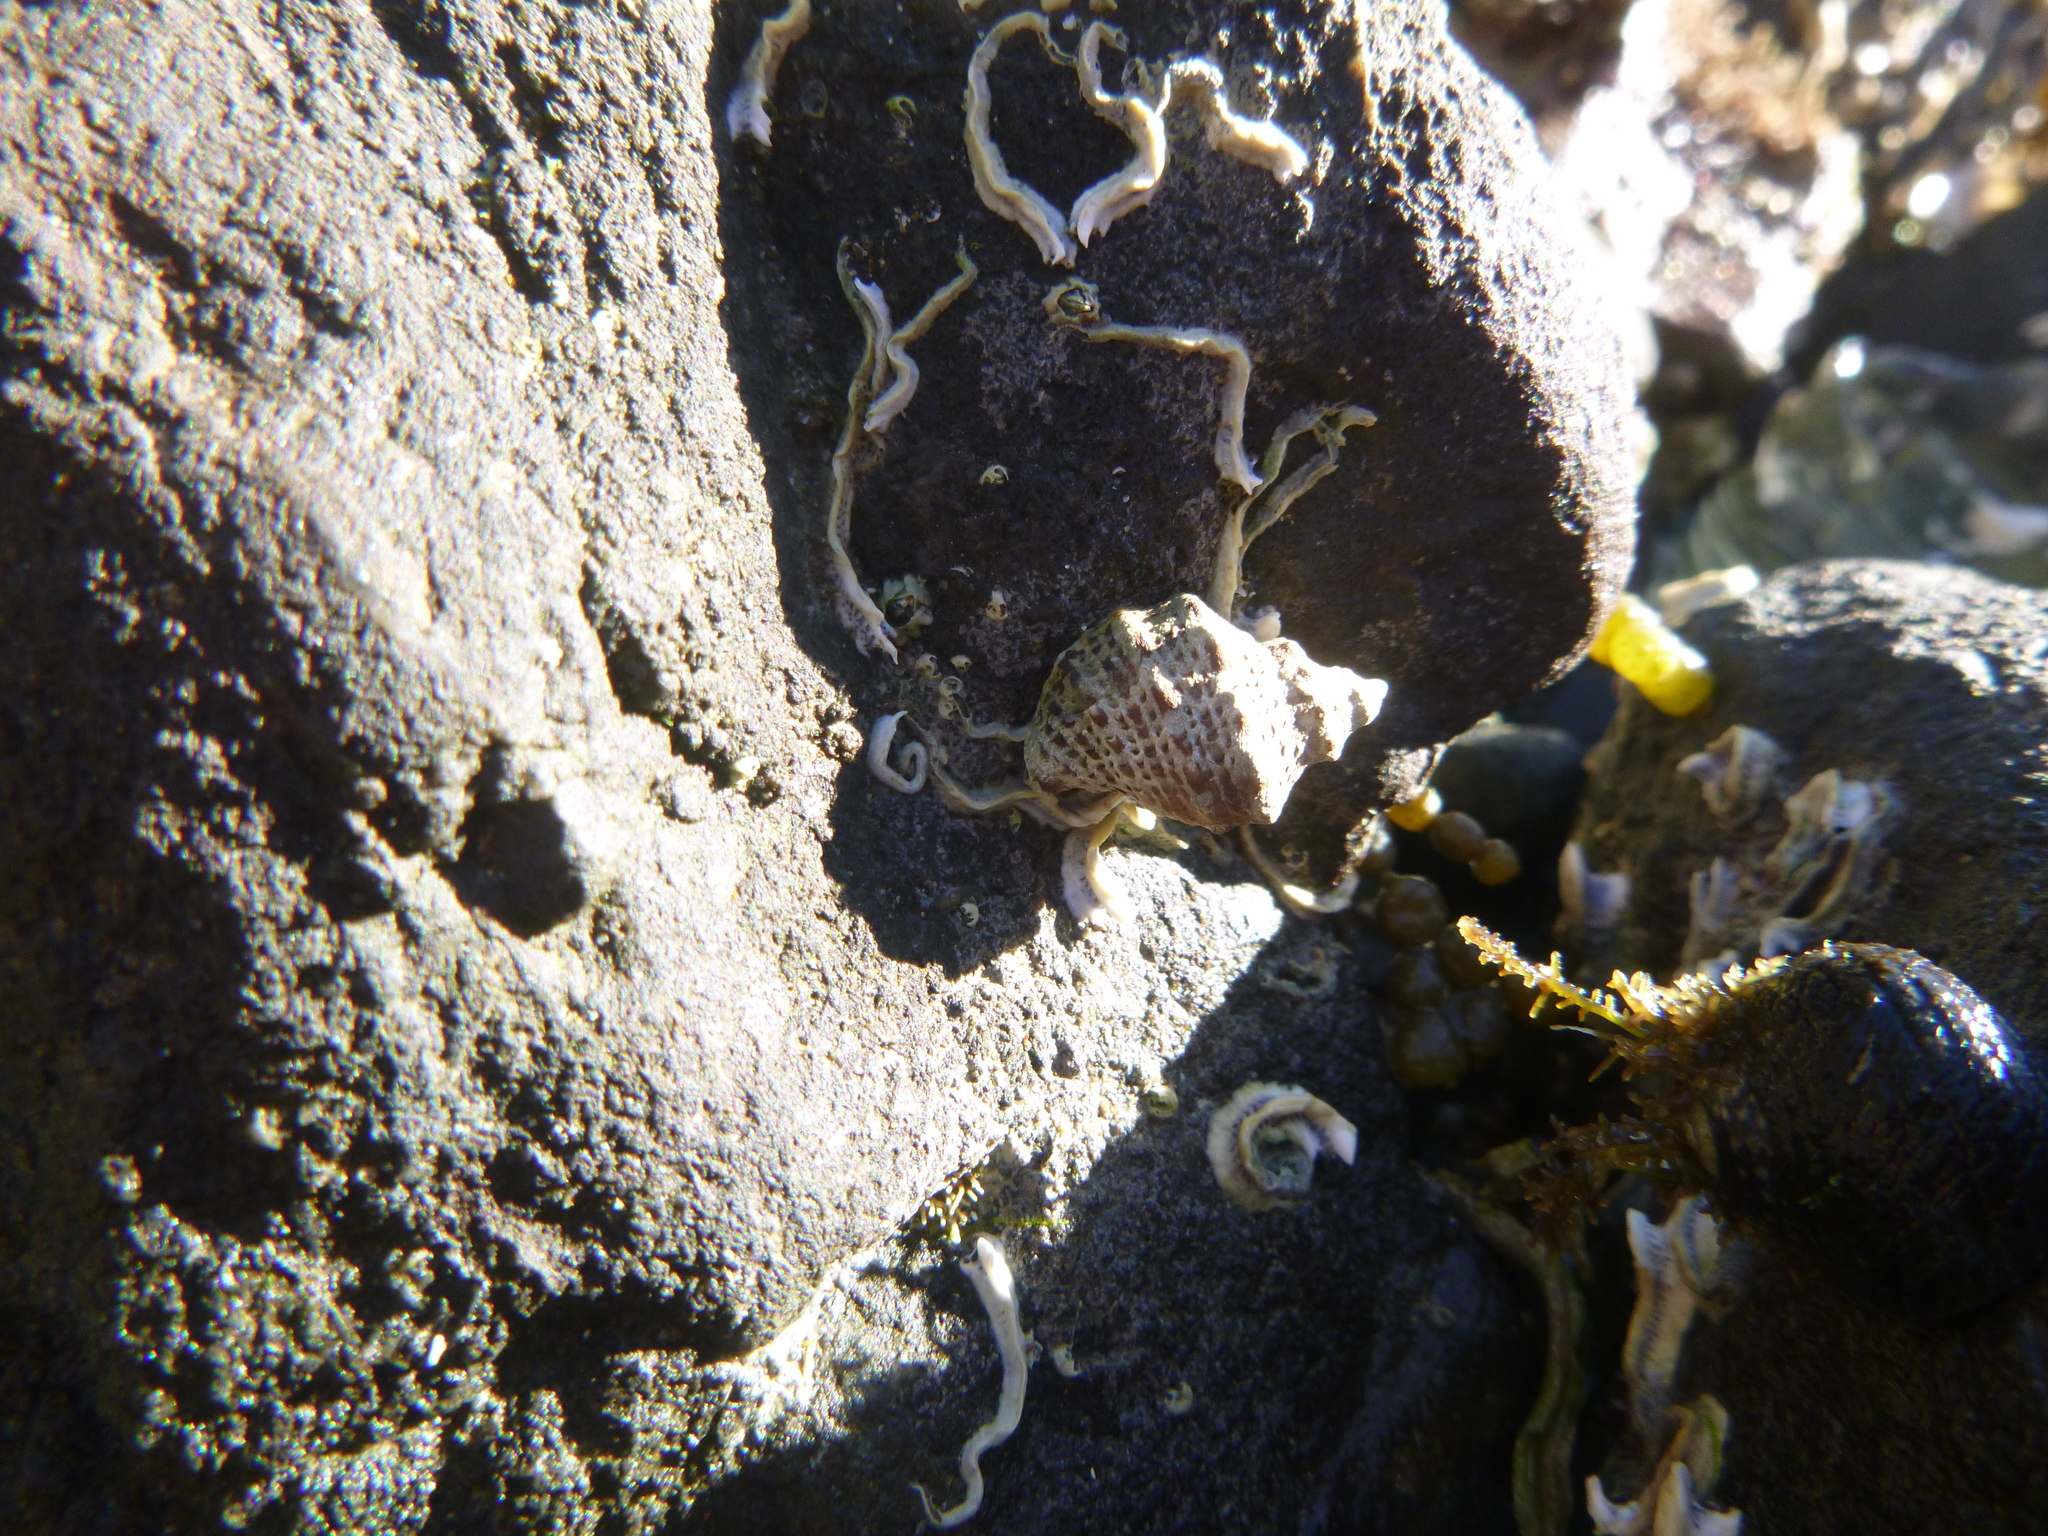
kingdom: Animalia
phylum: Mollusca
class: Gastropoda
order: Neogastropoda
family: Muricidae
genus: Haustrum
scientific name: Haustrum scobina
